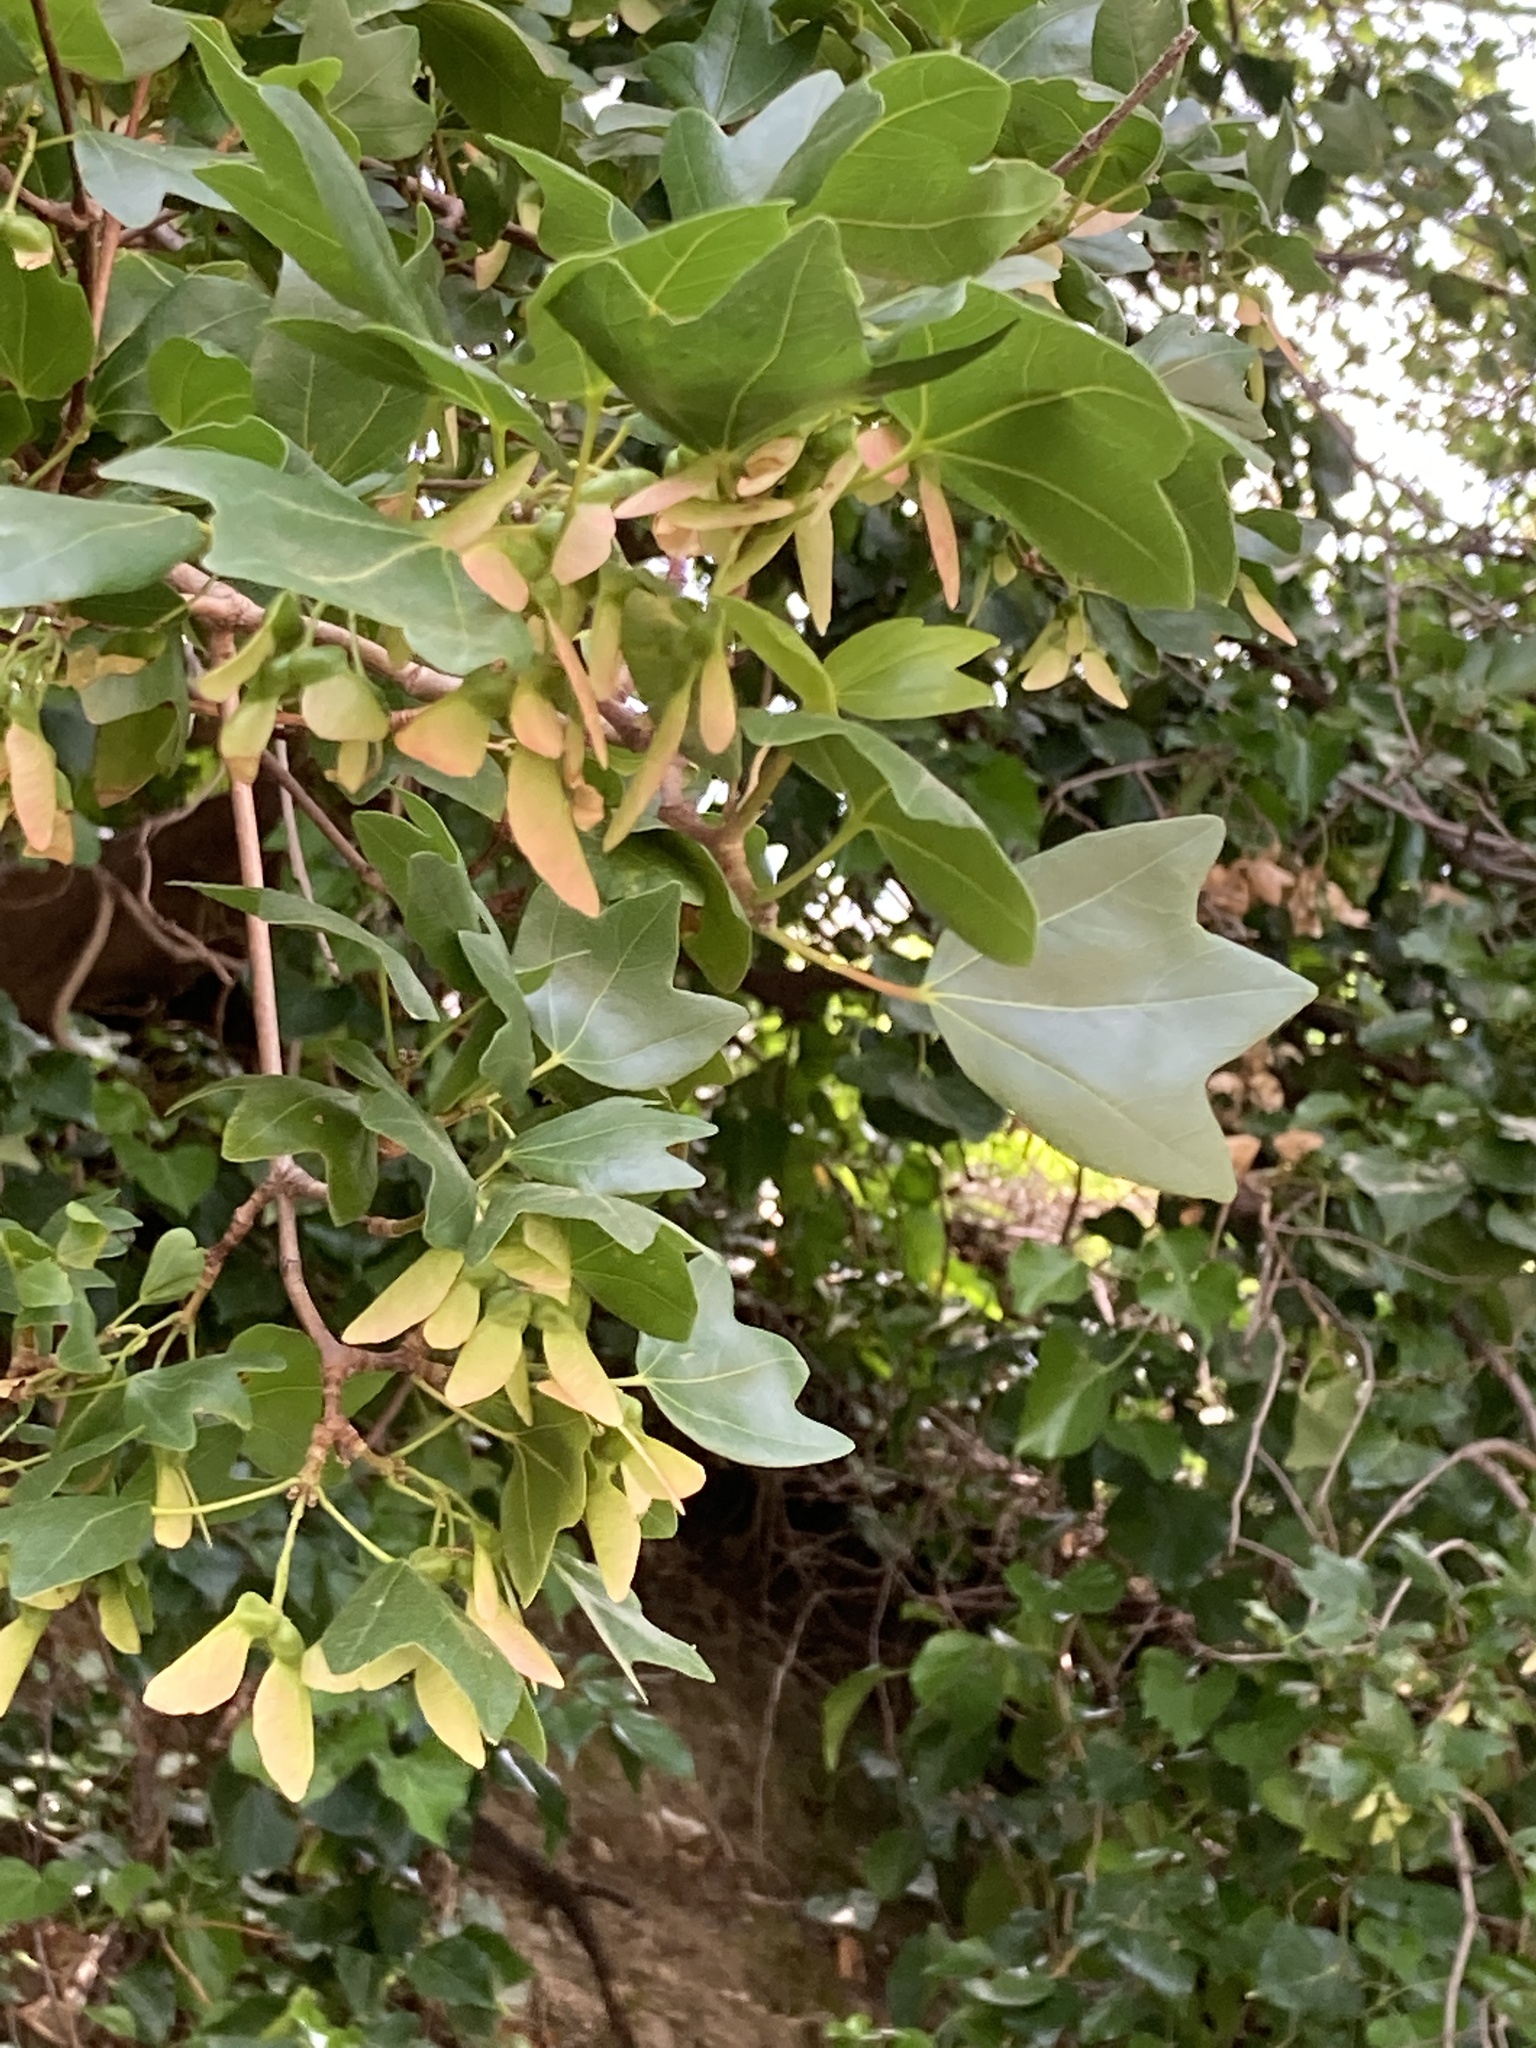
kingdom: Plantae
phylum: Tracheophyta
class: Magnoliopsida
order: Sapindales
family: Sapindaceae
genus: Acer
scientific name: Acer sempervirens
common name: Cretan maple
